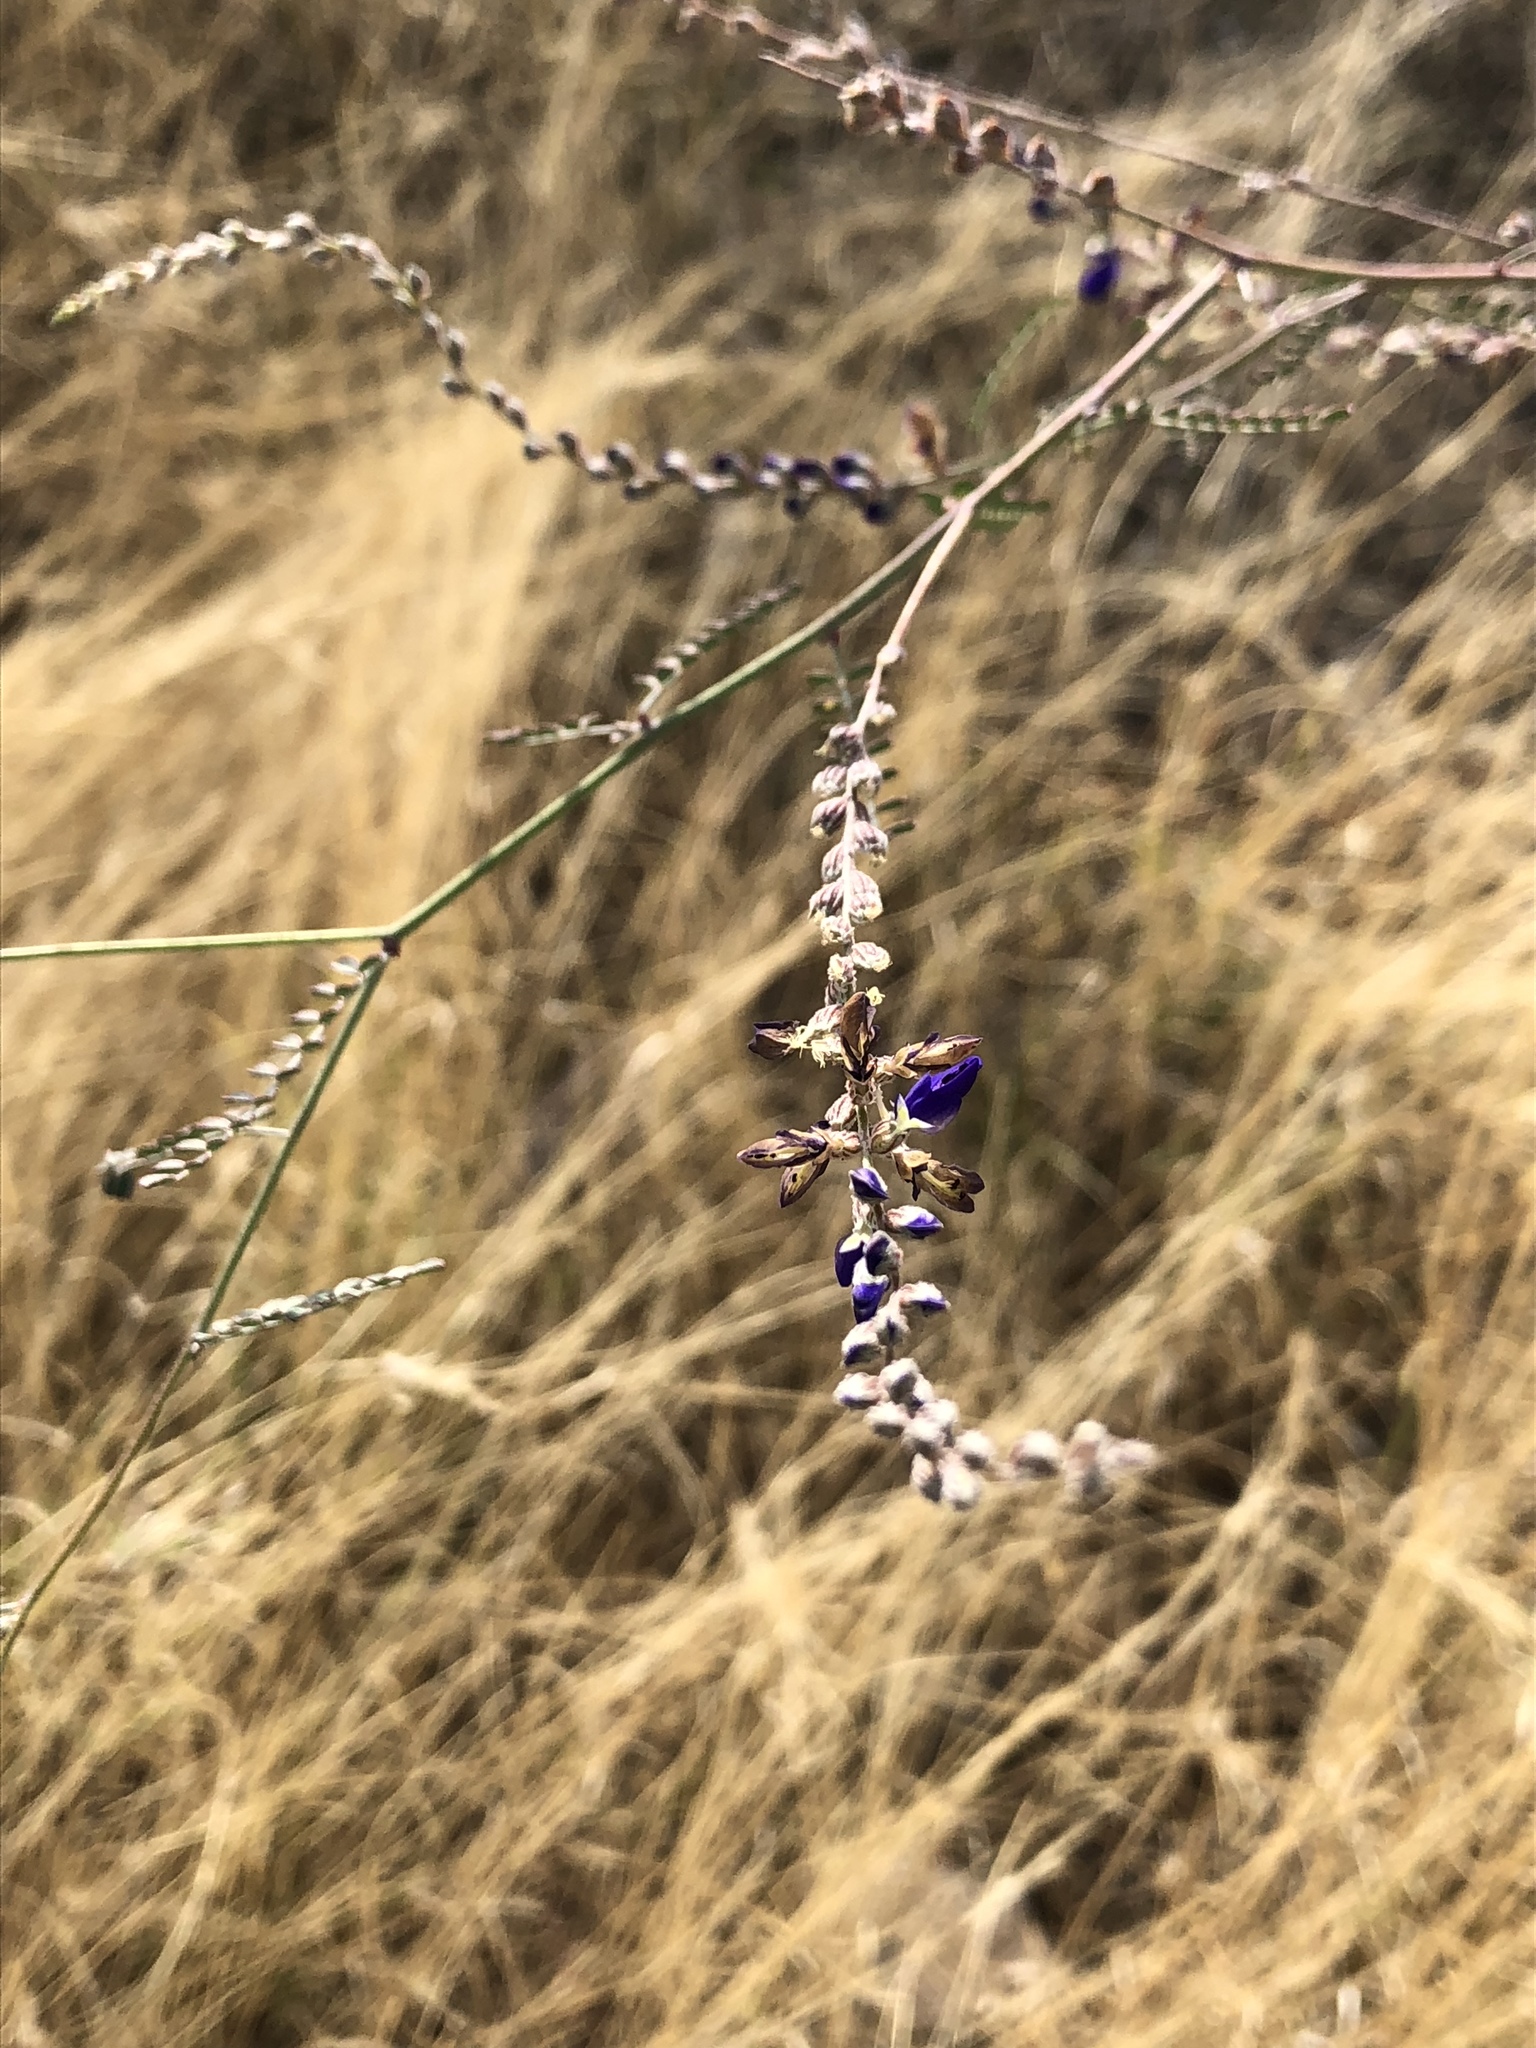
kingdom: Plantae
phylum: Tracheophyta
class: Magnoliopsida
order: Fabales
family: Fabaceae
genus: Marina
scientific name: Marina parryi
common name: Parry's marina
